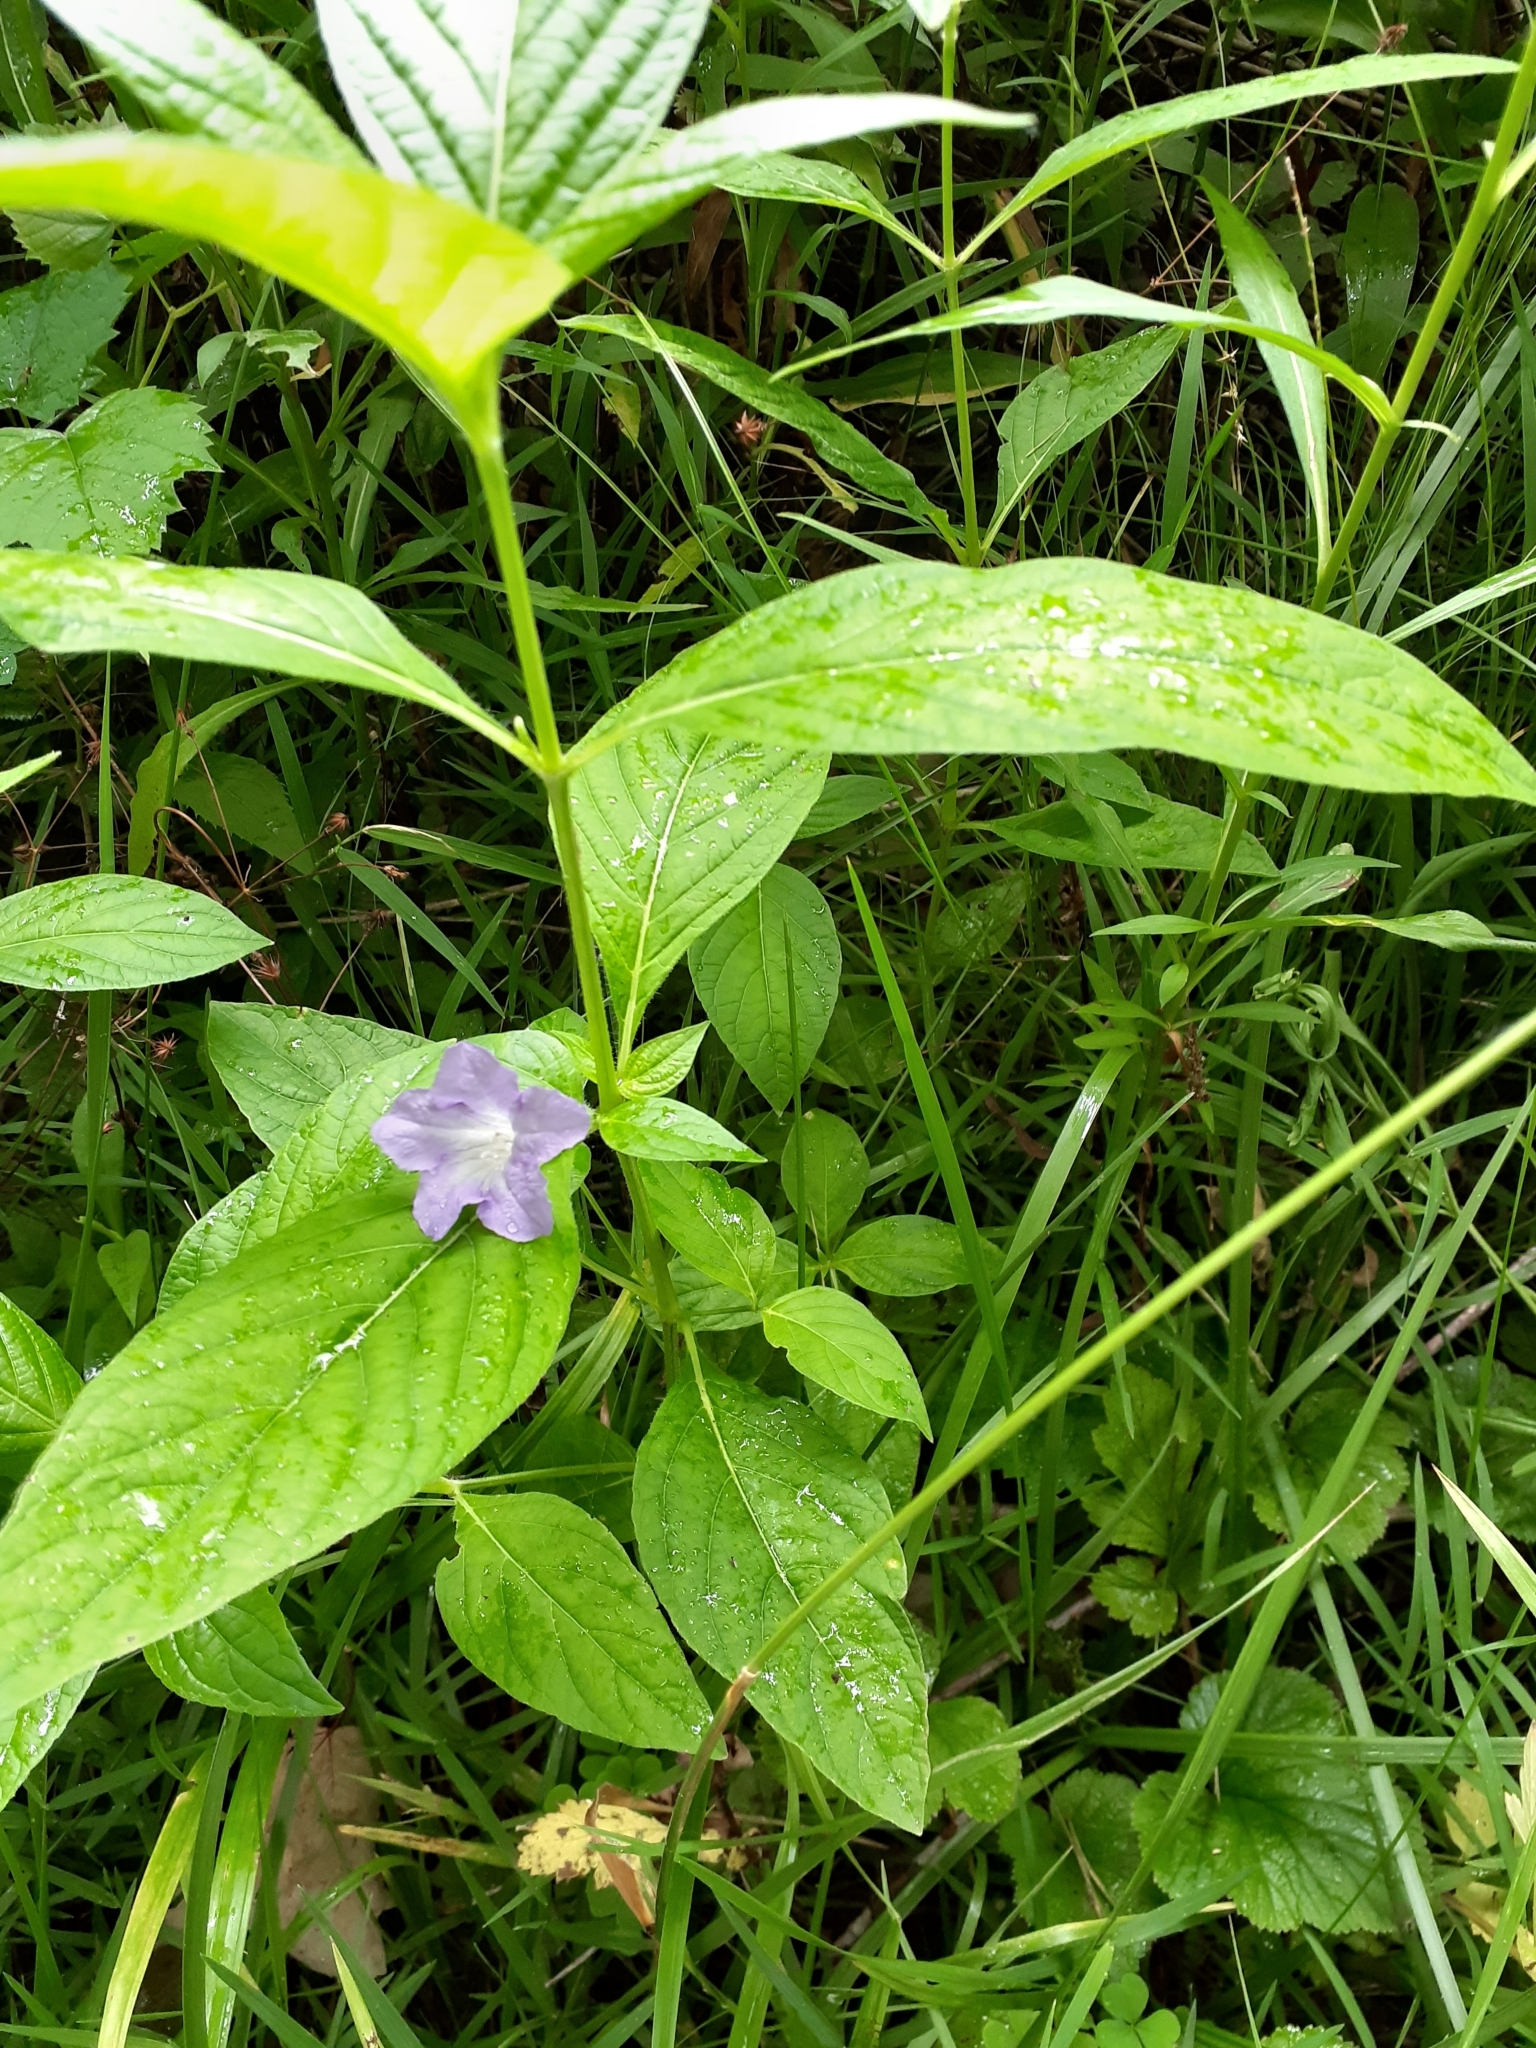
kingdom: Plantae
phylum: Tracheophyta
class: Magnoliopsida
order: Lamiales
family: Acanthaceae
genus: Ruellia
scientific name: Ruellia strepens
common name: Limestone wild petunia
